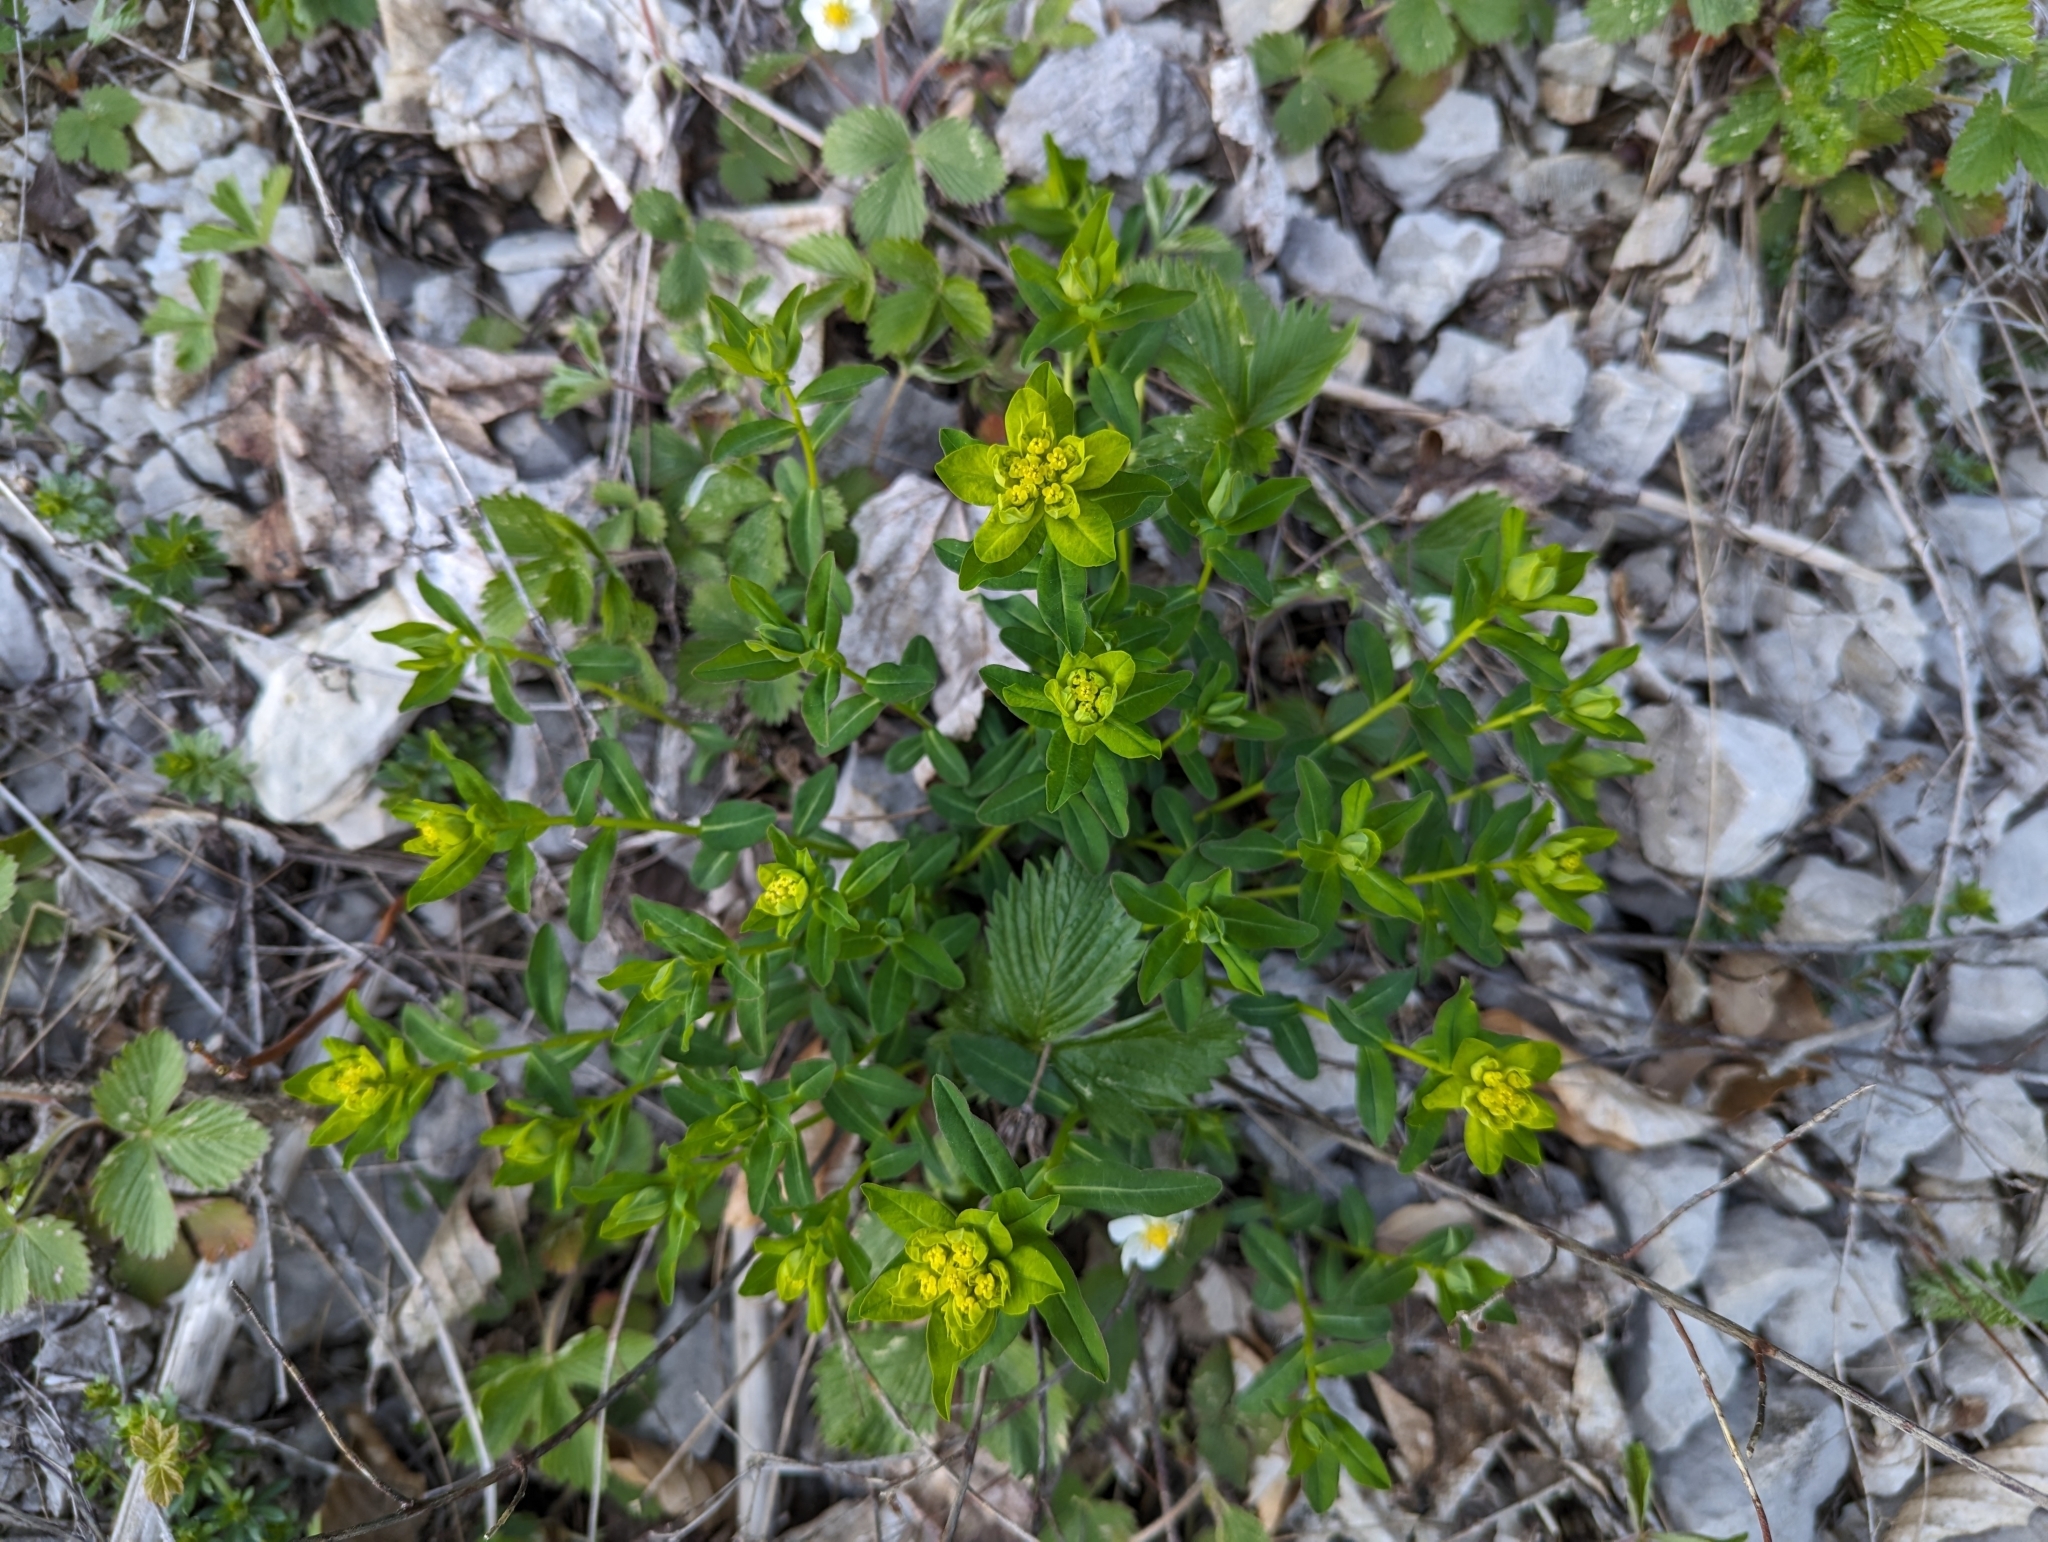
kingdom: Plantae
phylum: Tracheophyta
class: Magnoliopsida
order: Malpighiales
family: Euphorbiaceae
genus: Euphorbia
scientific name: Euphorbia verrucosa
